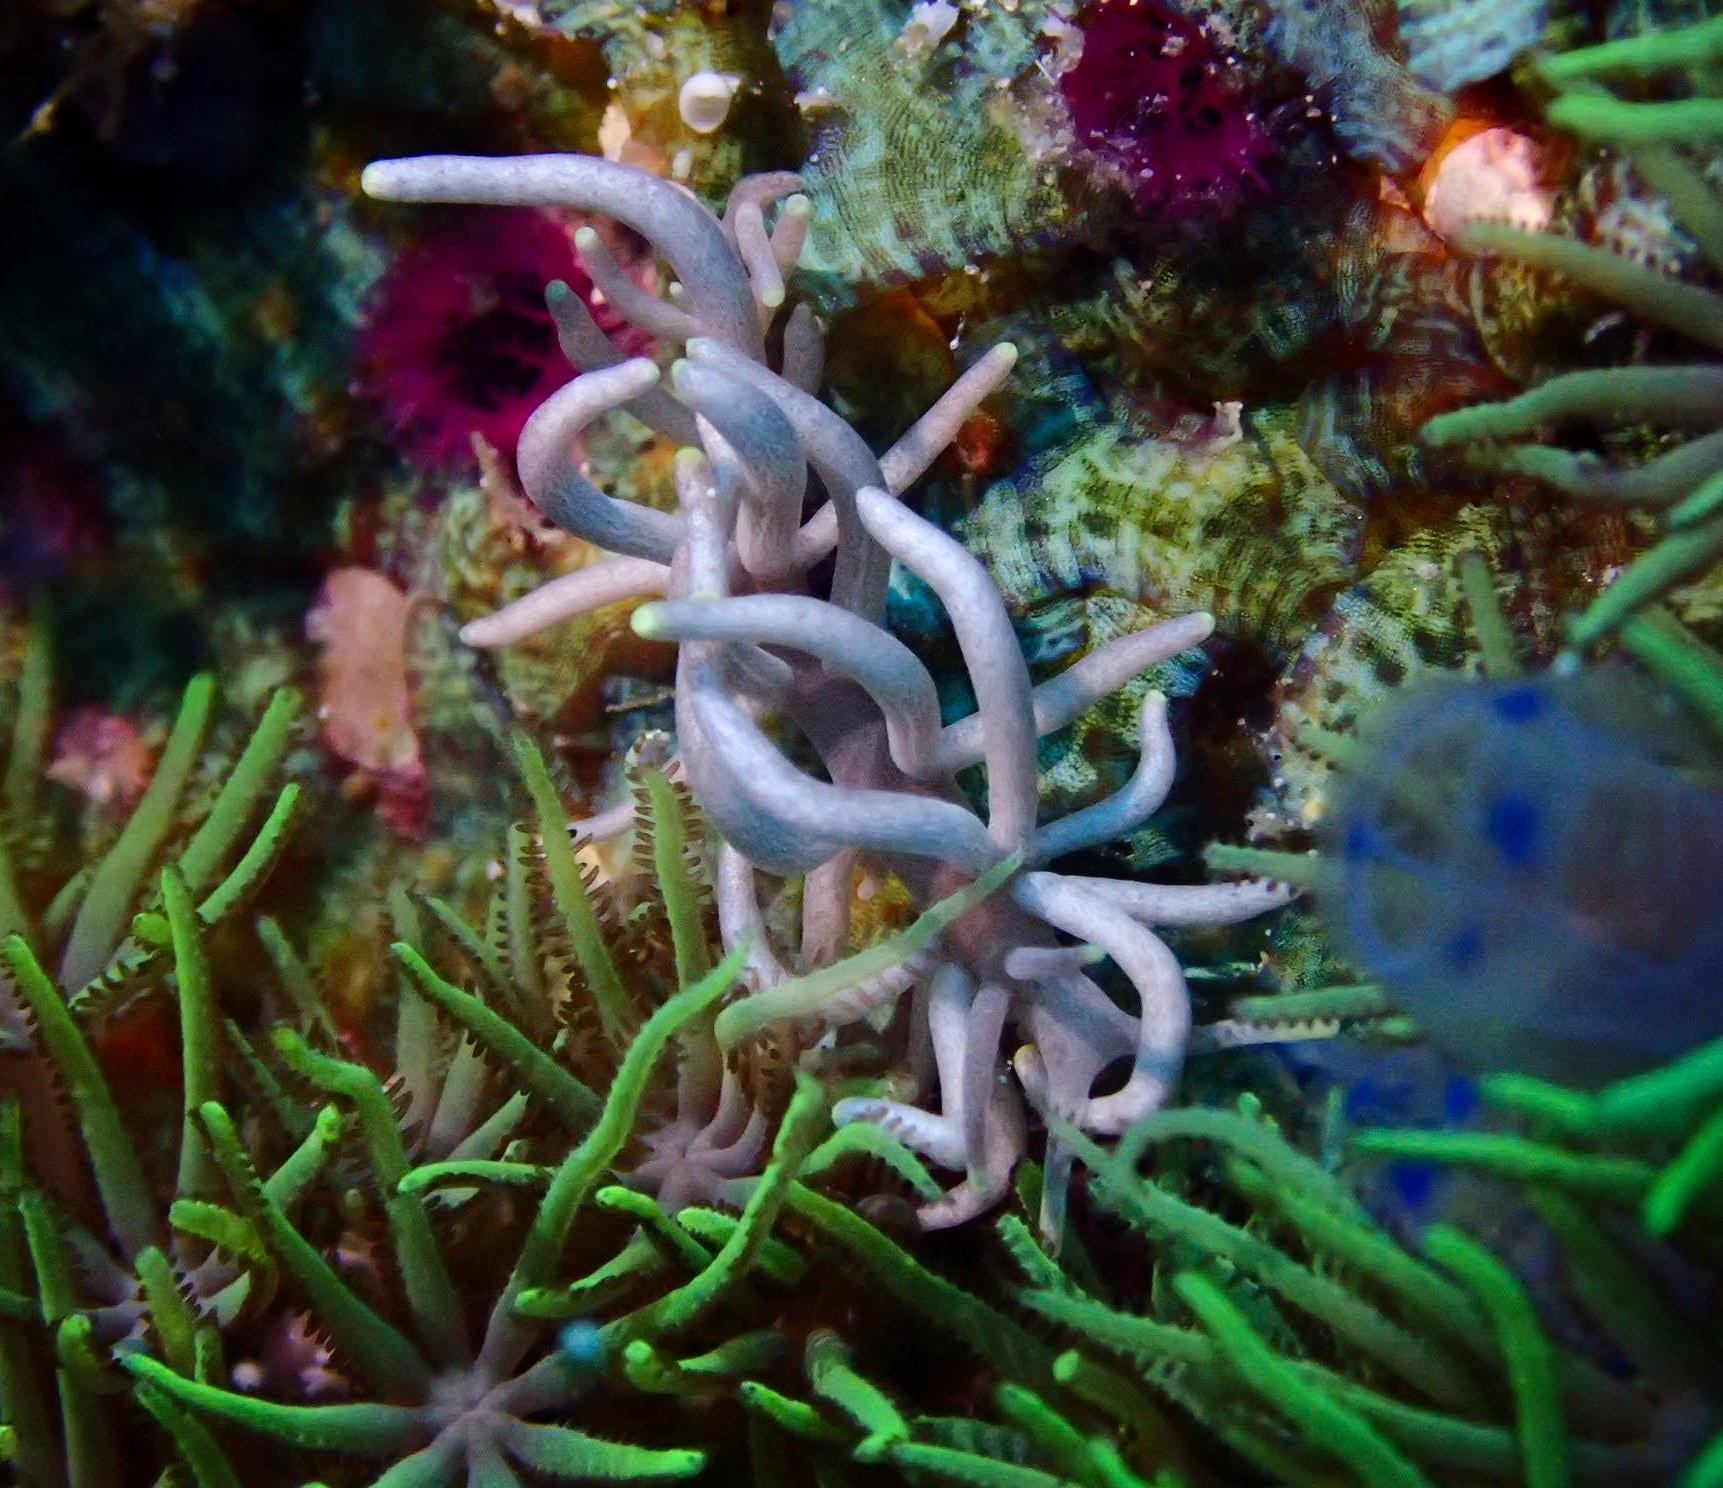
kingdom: Animalia
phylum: Mollusca
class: Gastropoda
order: Nudibranchia
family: Myrrhinidae
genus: Phyllodesmium
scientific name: Phyllodesmium briareum
